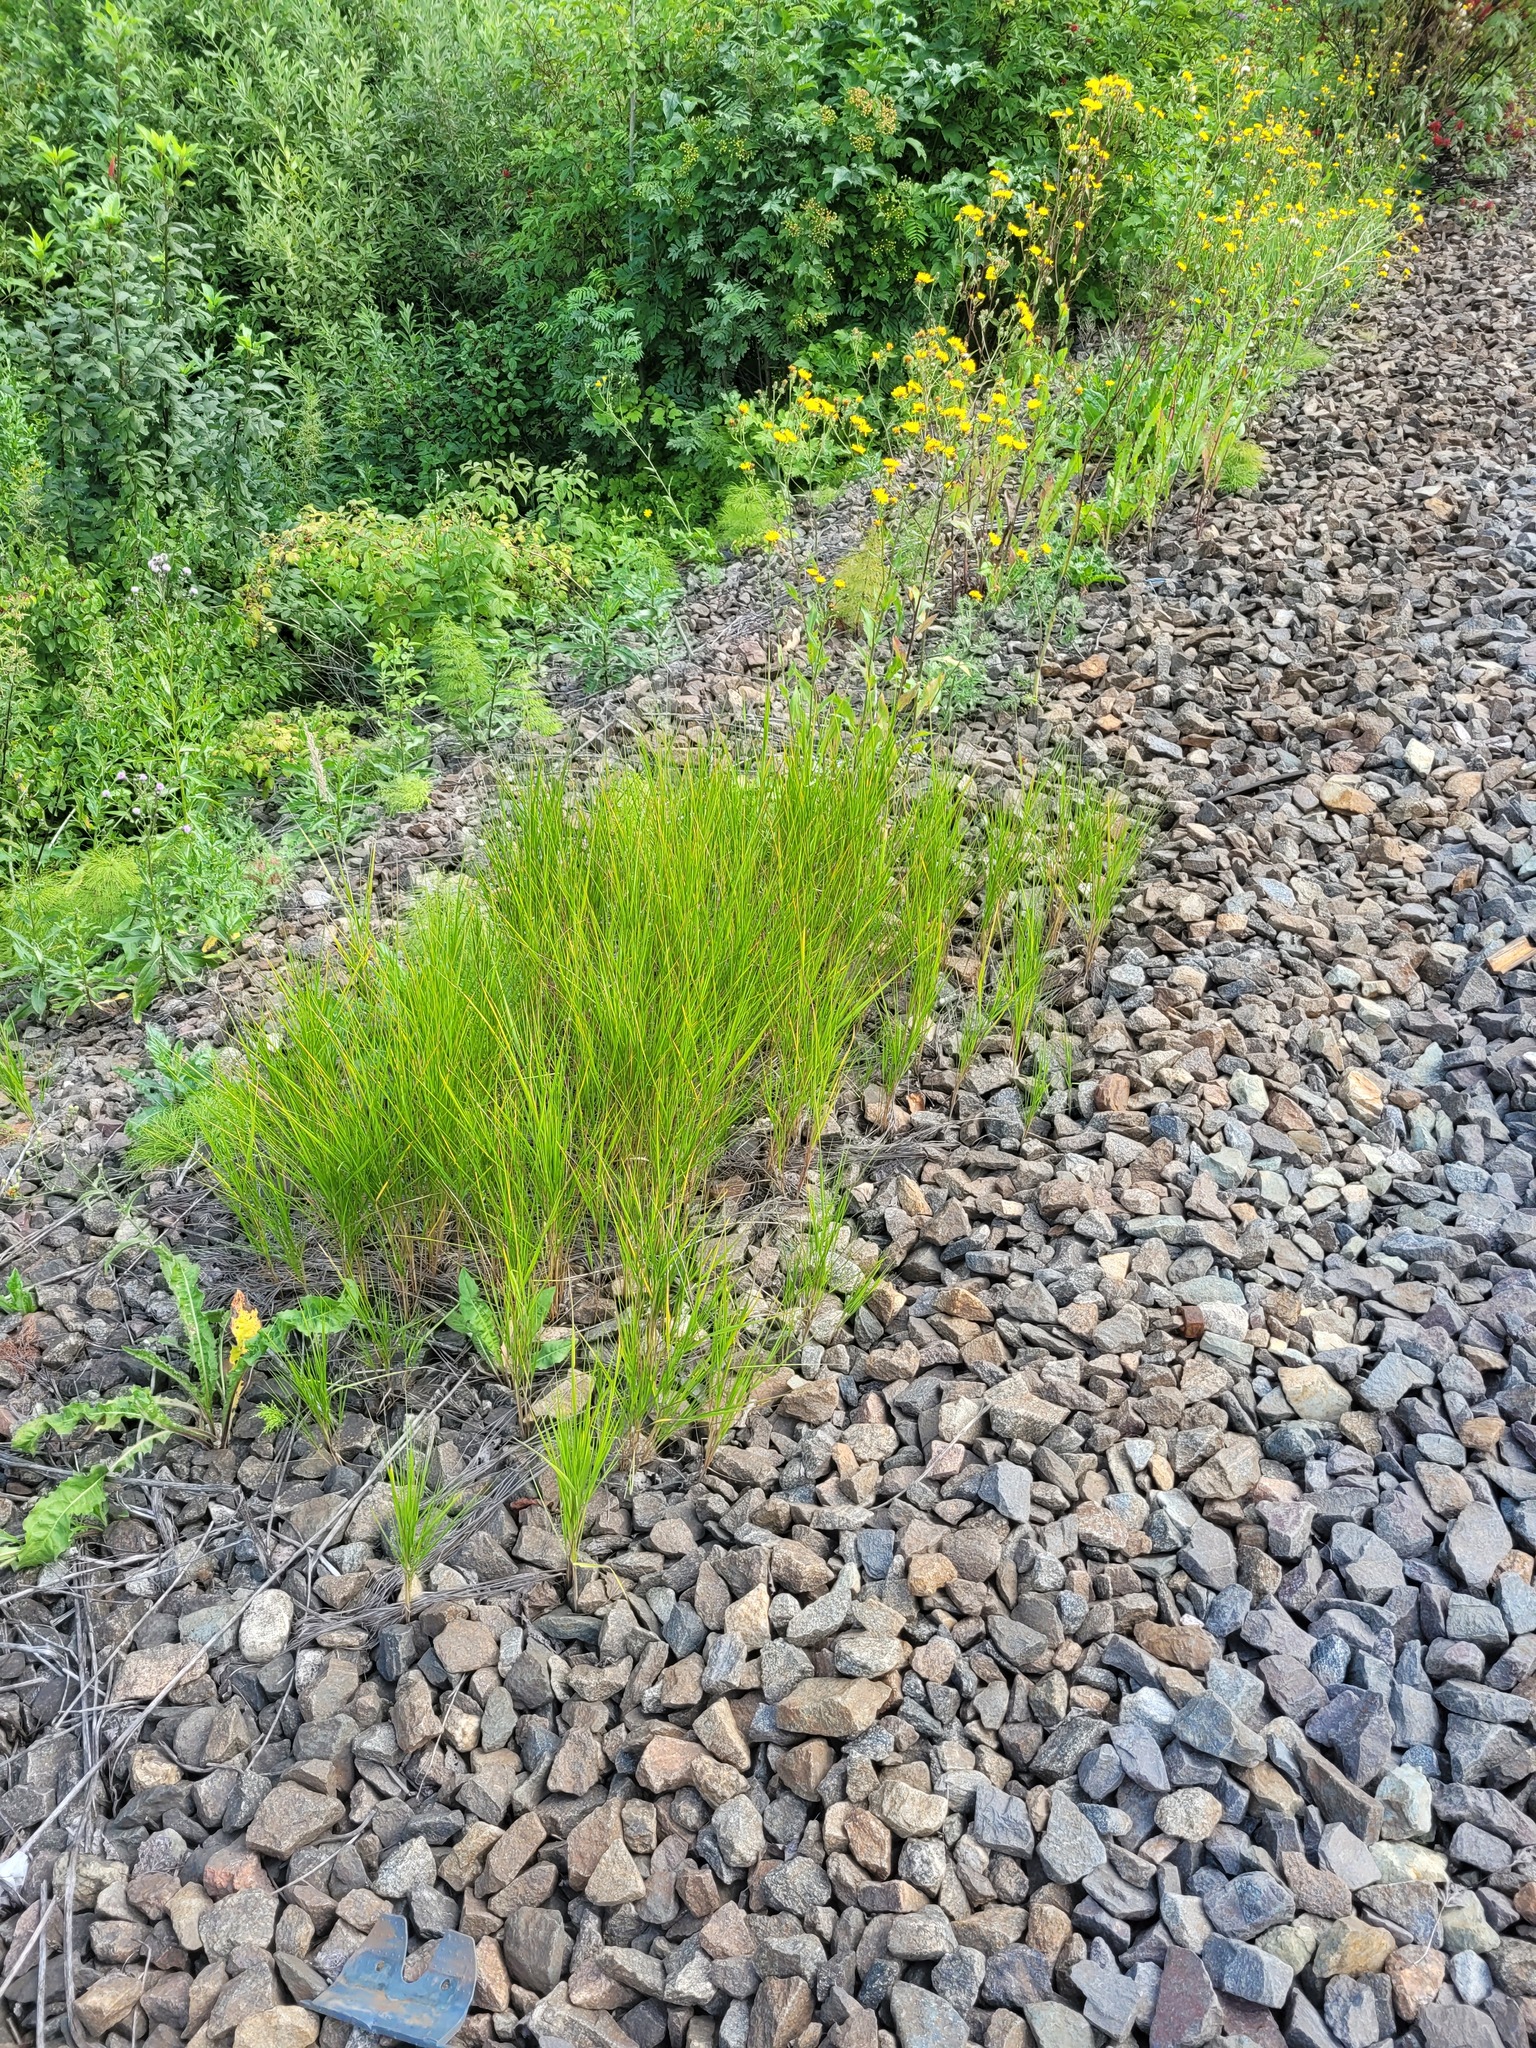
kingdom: Plantae
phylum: Tracheophyta
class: Liliopsida
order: Poales
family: Poaceae
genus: Calamagrostis
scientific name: Calamagrostis canescens
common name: Purple small-reed
